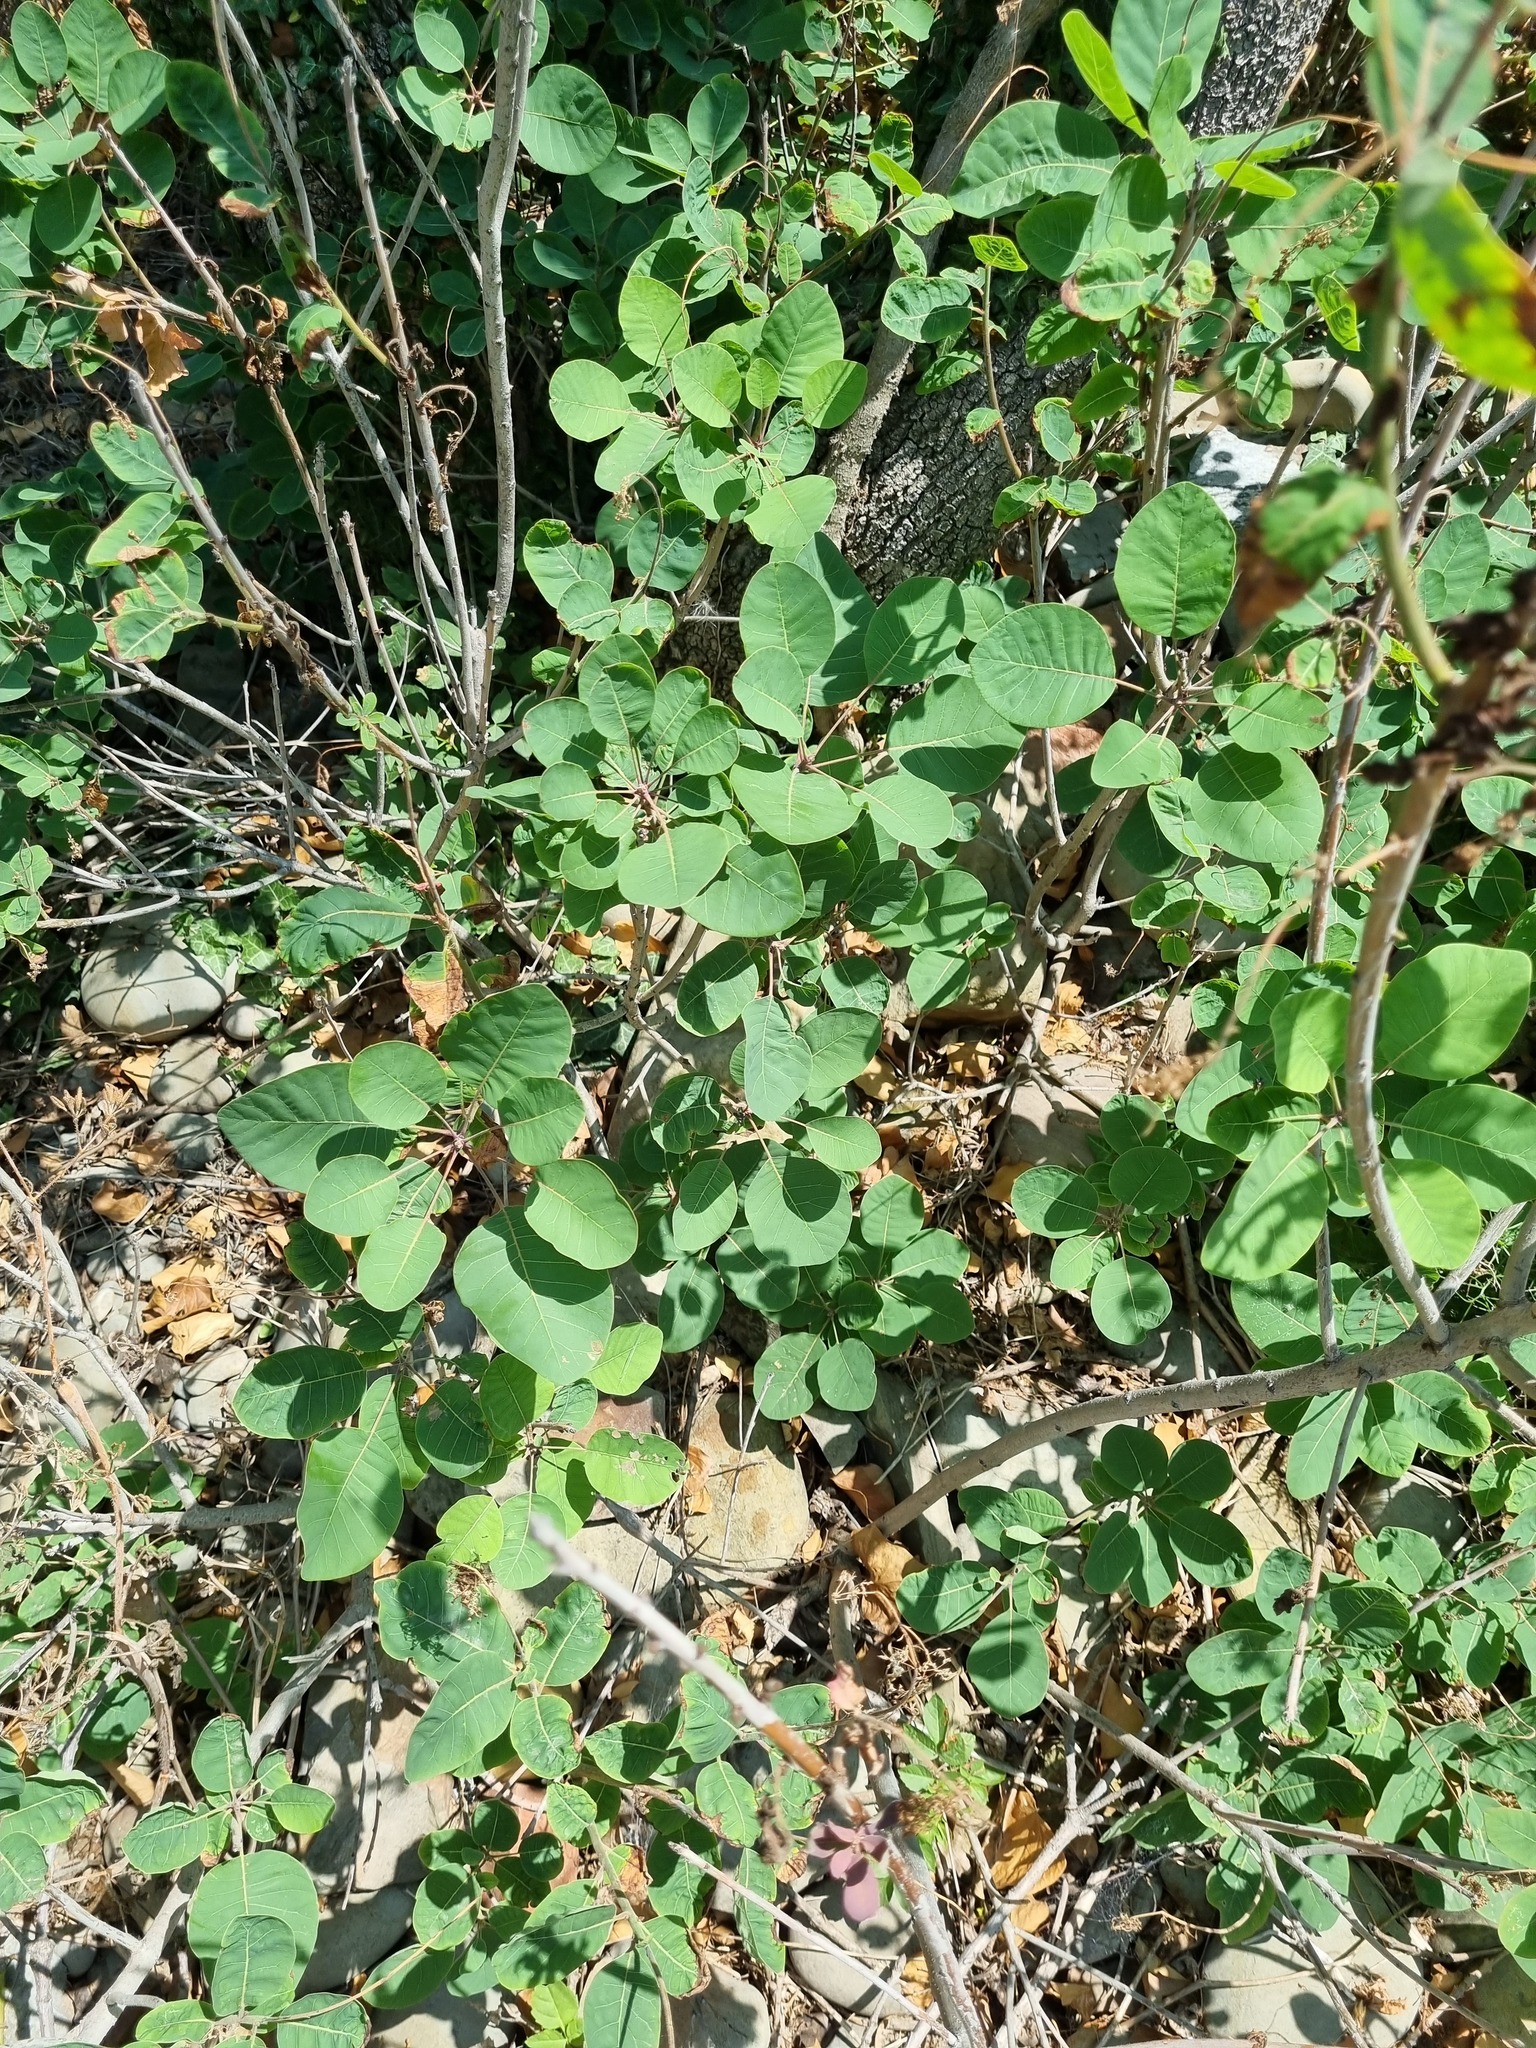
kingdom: Plantae
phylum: Tracheophyta
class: Magnoliopsida
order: Sapindales
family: Anacardiaceae
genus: Cotinus
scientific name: Cotinus coggygria
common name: Smoke-tree
